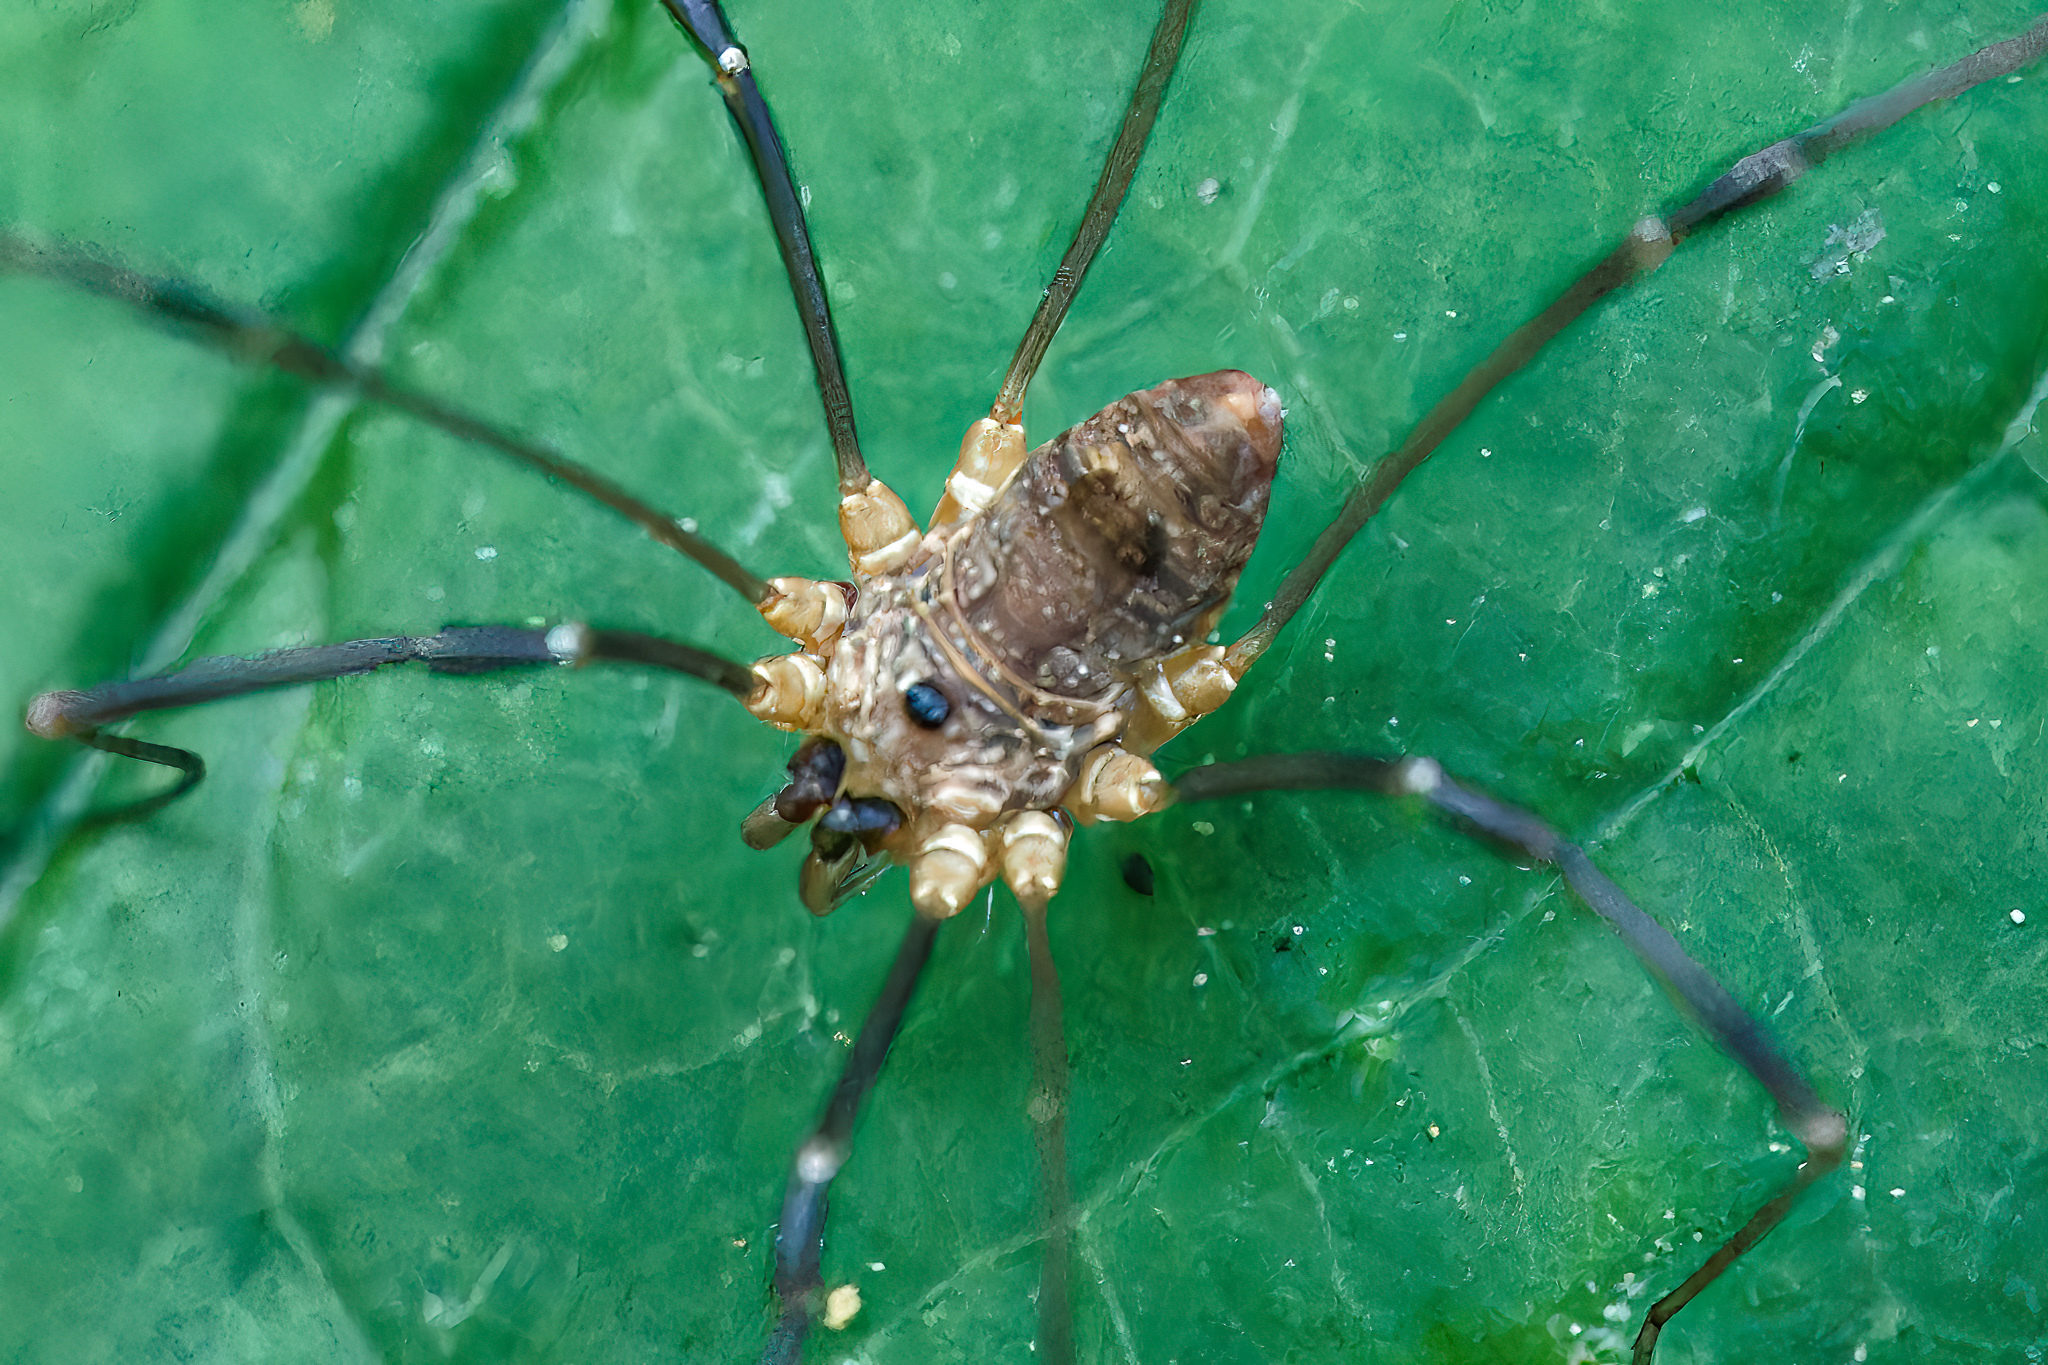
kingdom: Animalia
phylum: Arthropoda
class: Arachnida
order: Opiliones
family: Sclerosomatidae
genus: Leiobunum
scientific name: Leiobunum calcar
